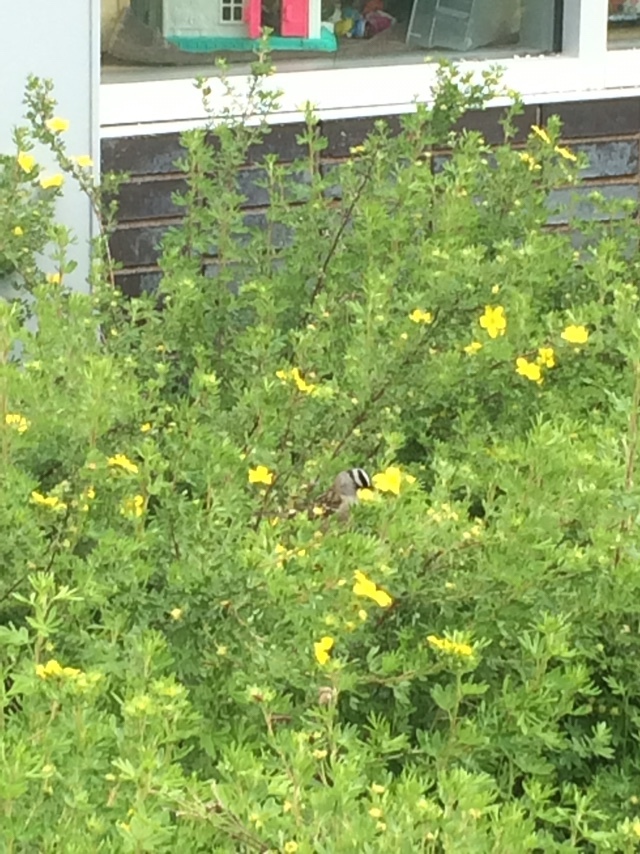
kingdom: Animalia
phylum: Chordata
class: Aves
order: Passeriformes
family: Passerellidae
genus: Zonotrichia
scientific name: Zonotrichia leucophrys
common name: White-crowned sparrow
